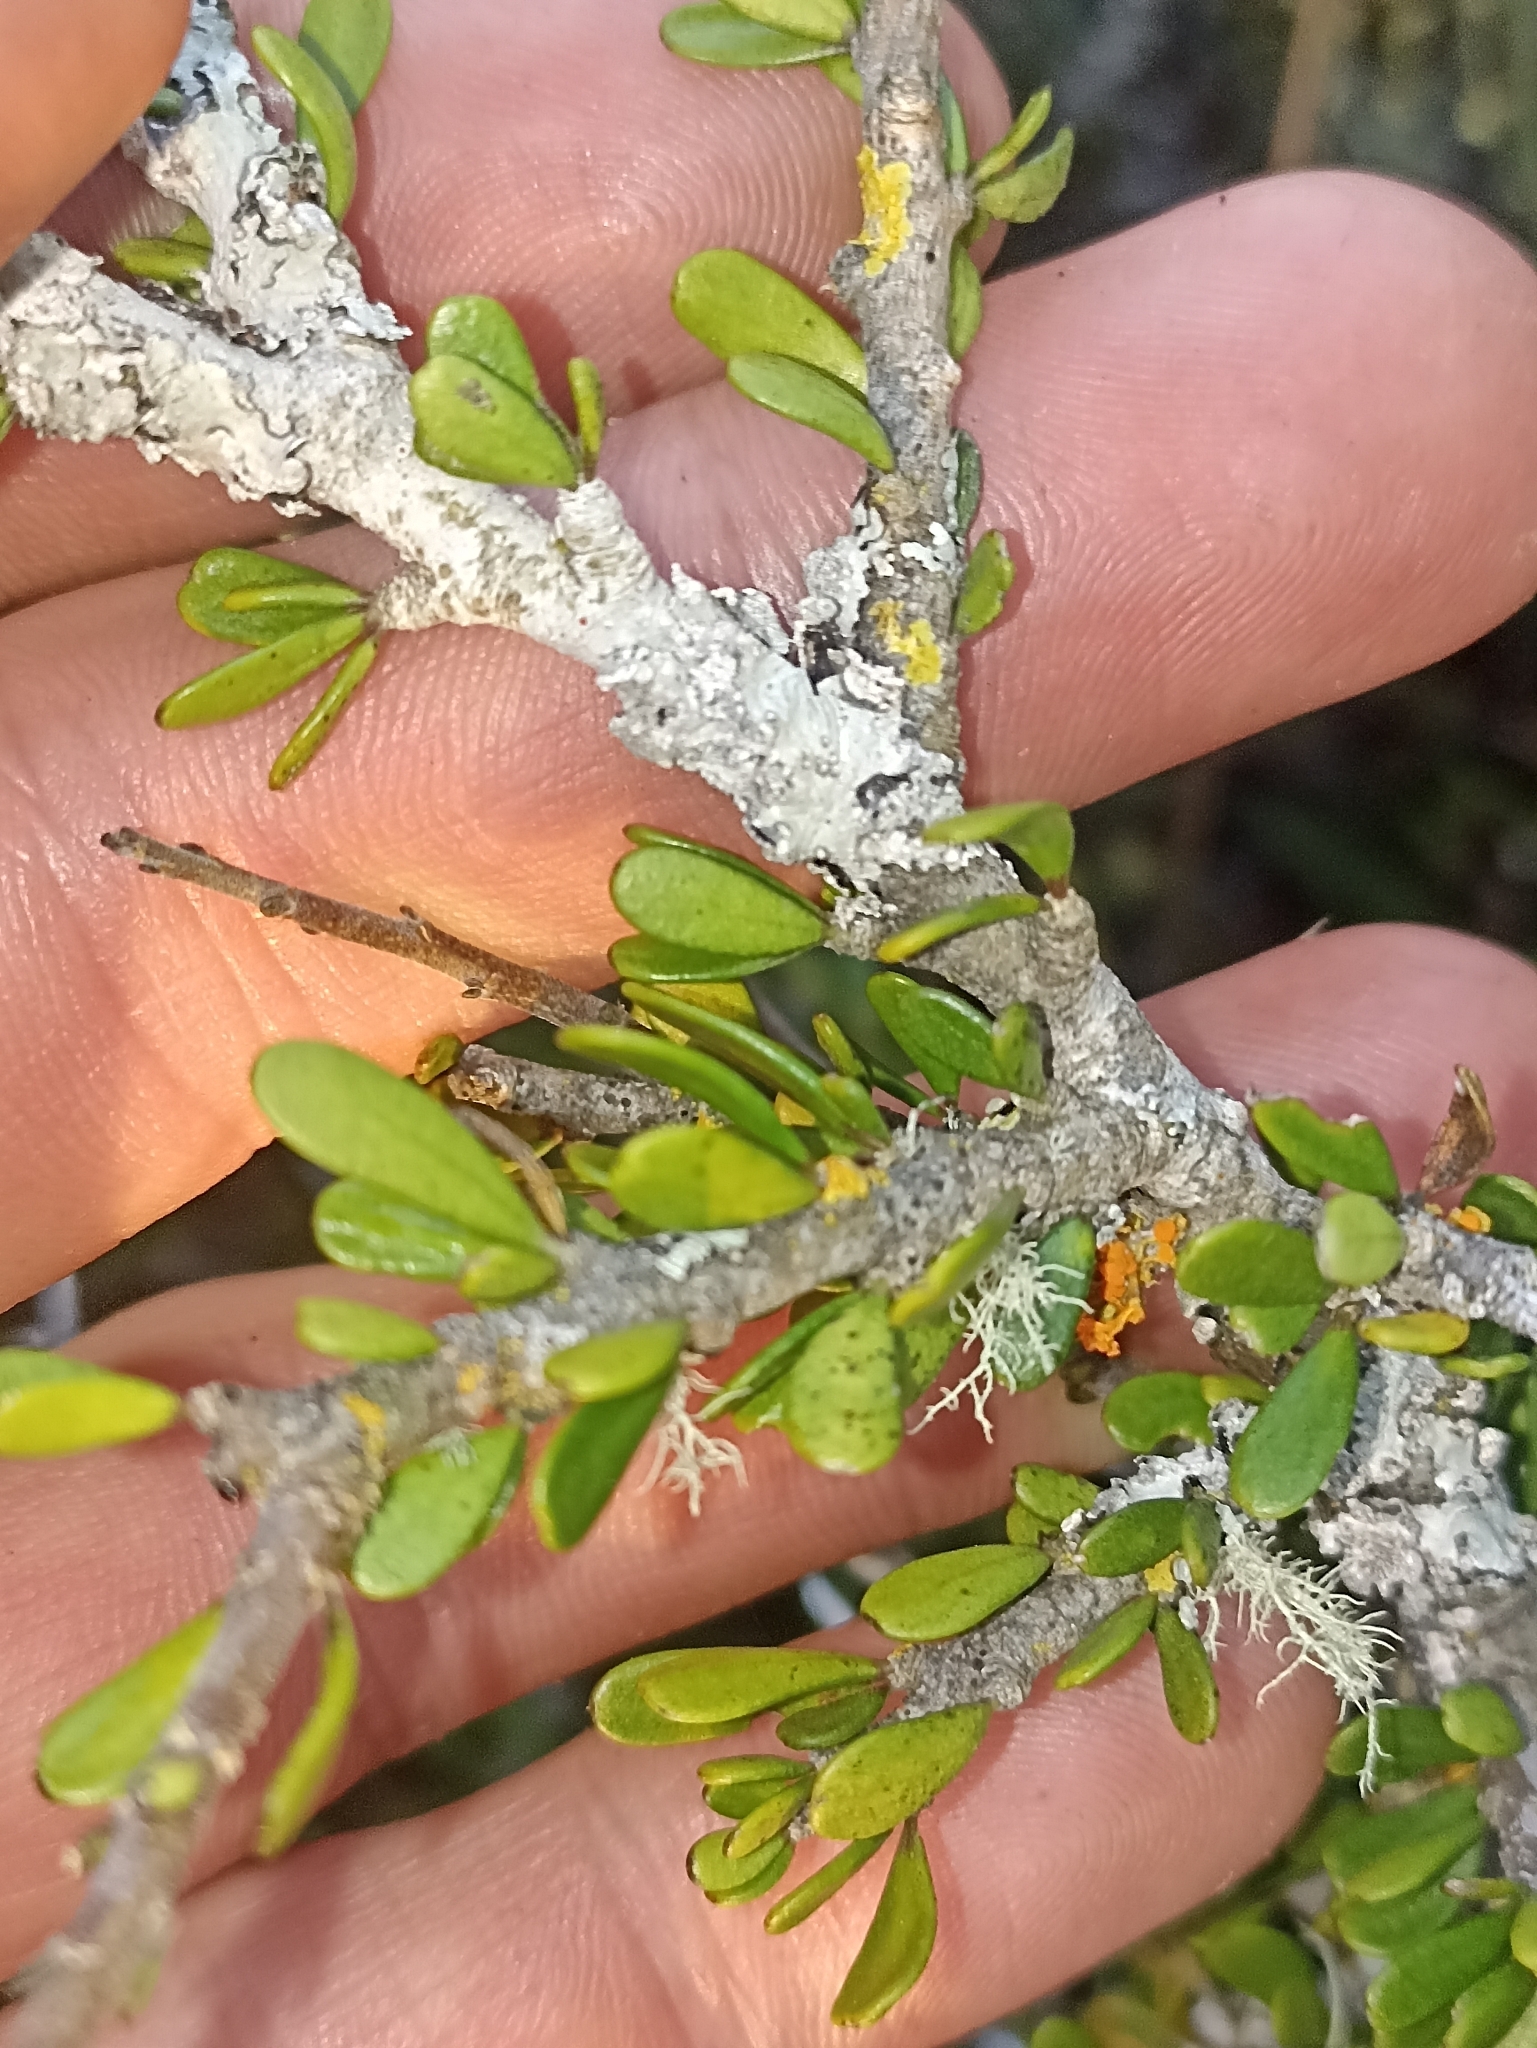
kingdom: Plantae
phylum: Tracheophyta
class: Magnoliopsida
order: Malpighiales
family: Violaceae
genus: Melicytus
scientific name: Melicytus alpinus
